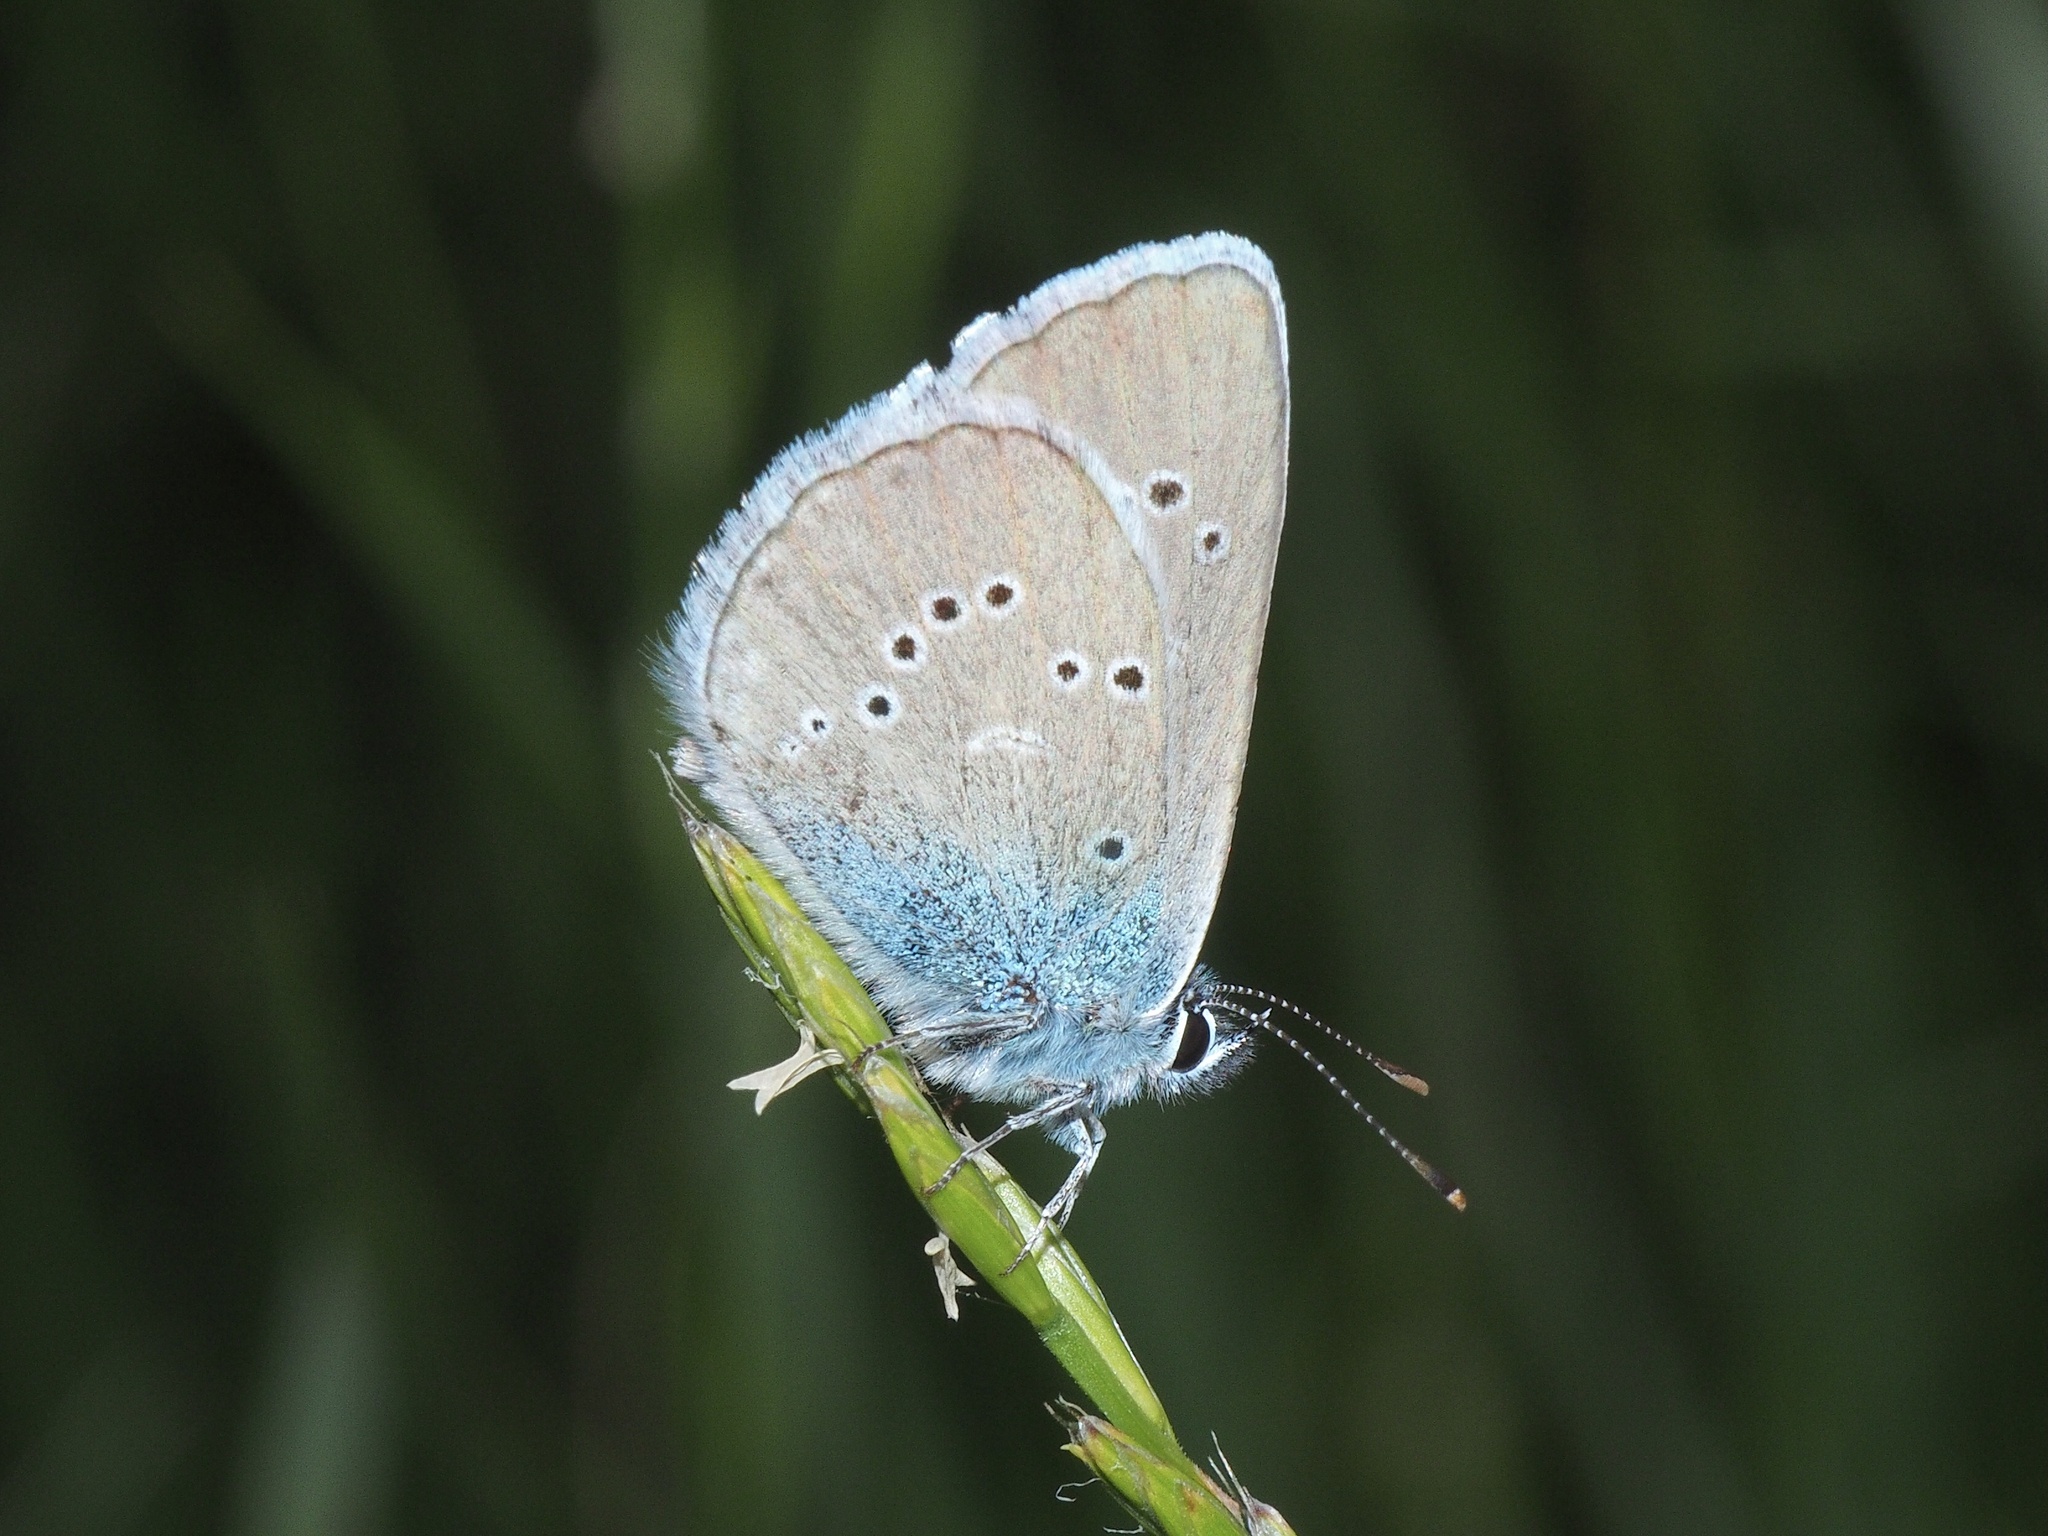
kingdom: Animalia
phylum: Arthropoda
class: Insecta
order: Lepidoptera
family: Lycaenidae
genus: Cyaniris
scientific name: Cyaniris semiargus
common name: Mazarine blue
